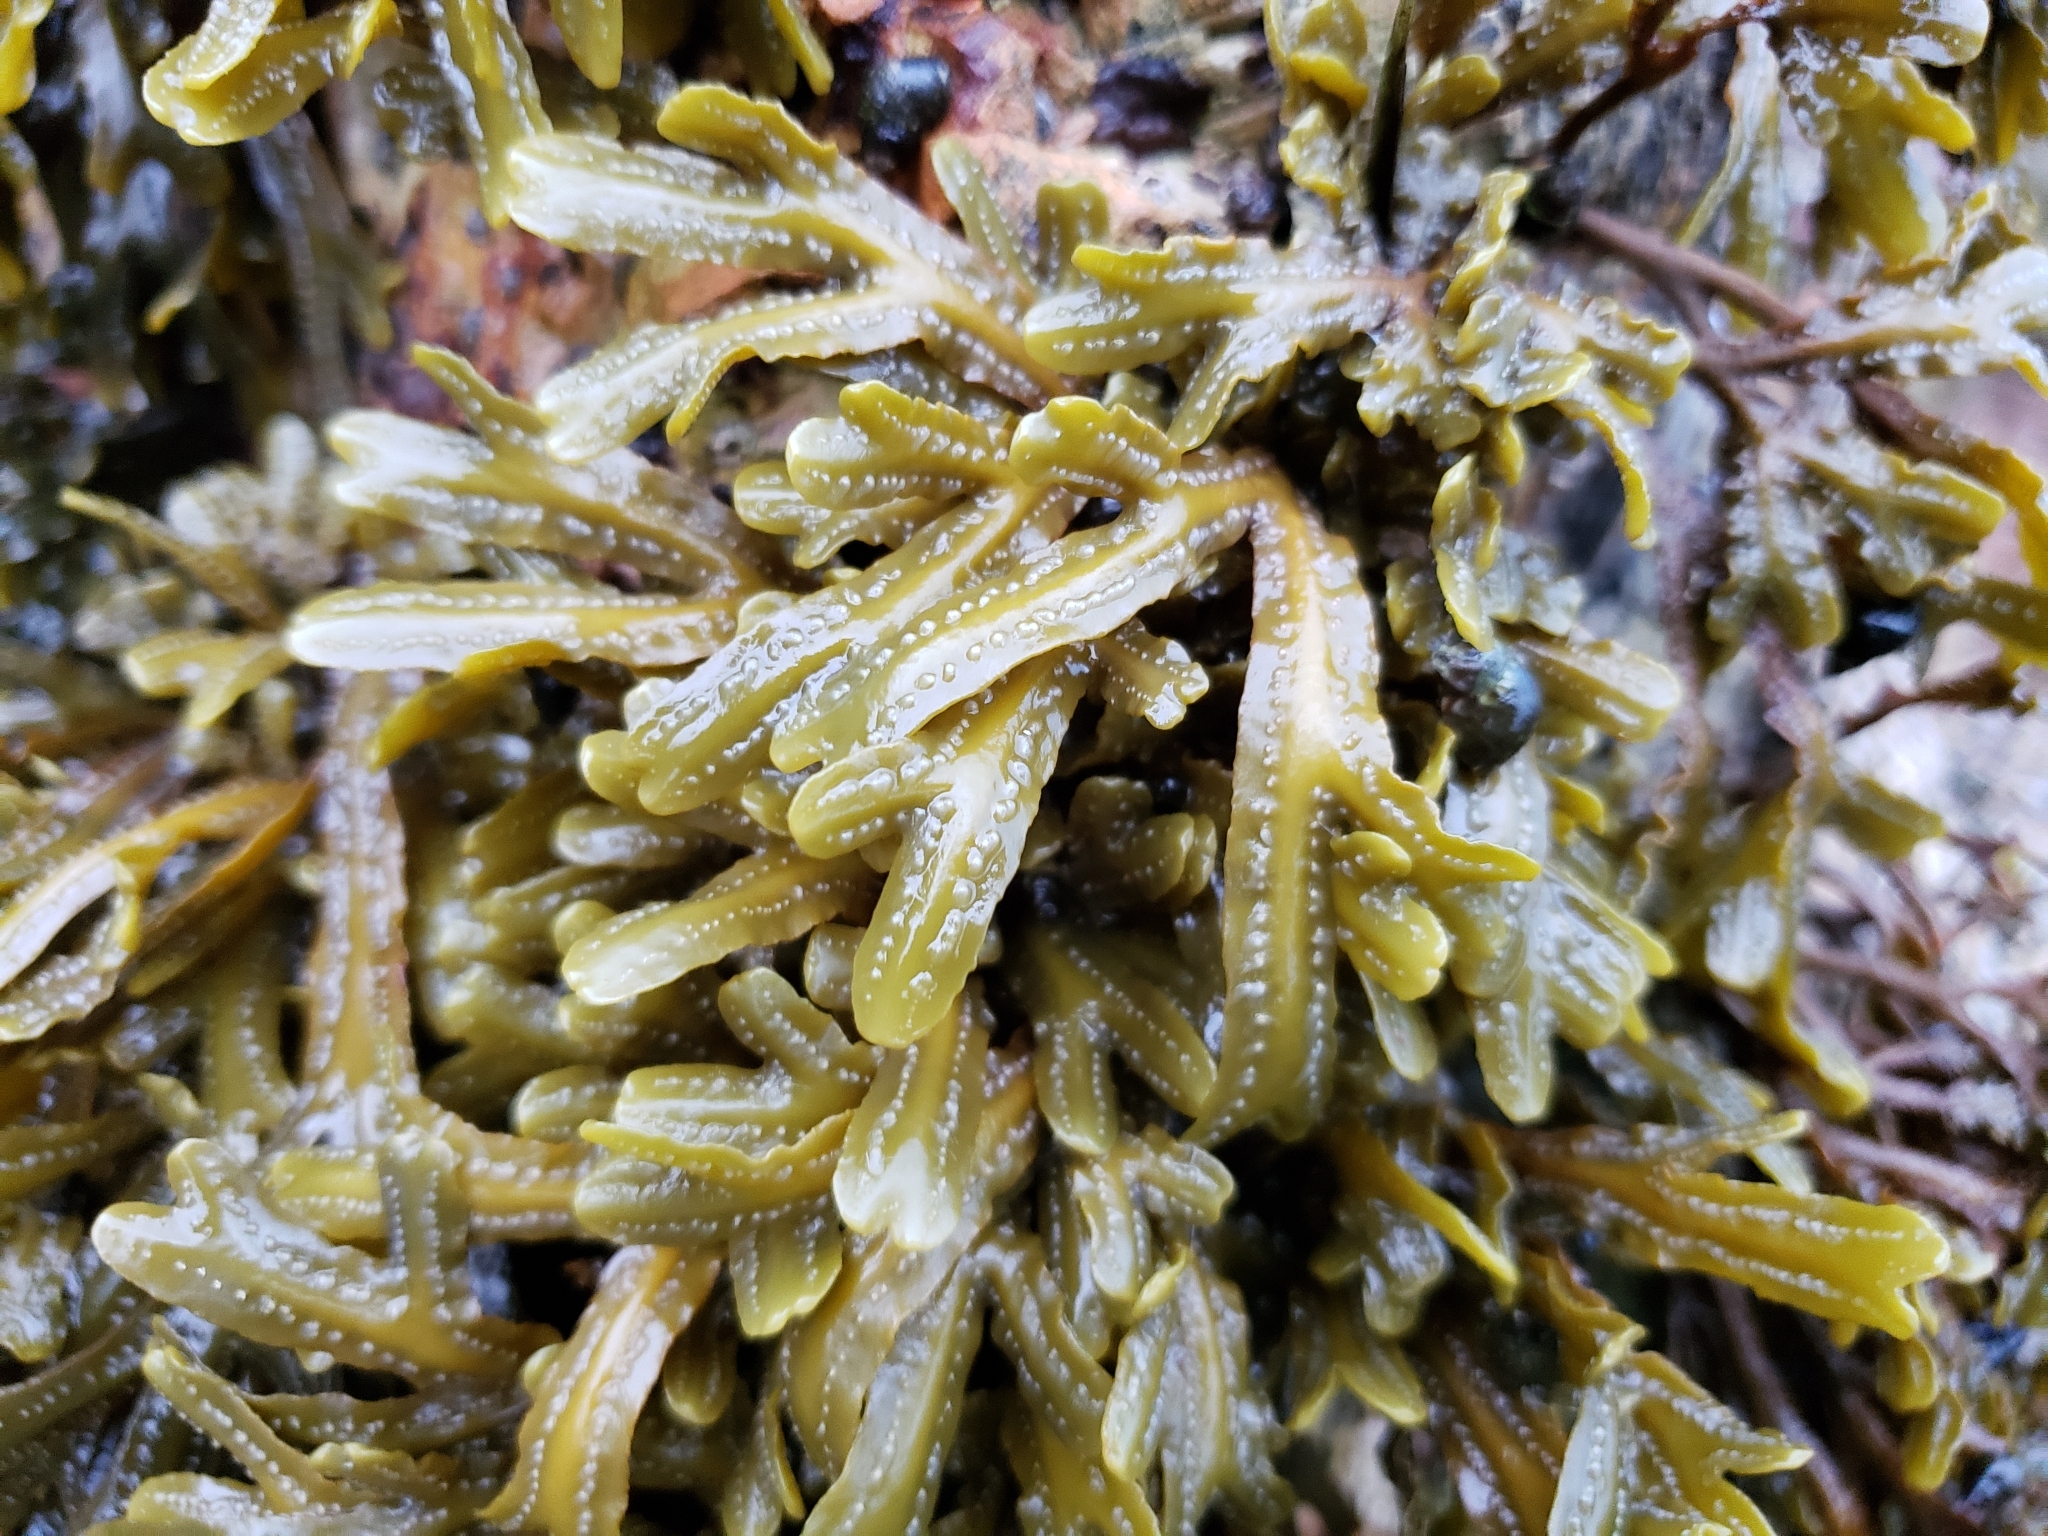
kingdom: Chromista
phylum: Ochrophyta
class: Phaeophyceae
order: Fucales
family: Fucaceae
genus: Pelvetiopsis
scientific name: Pelvetiopsis
